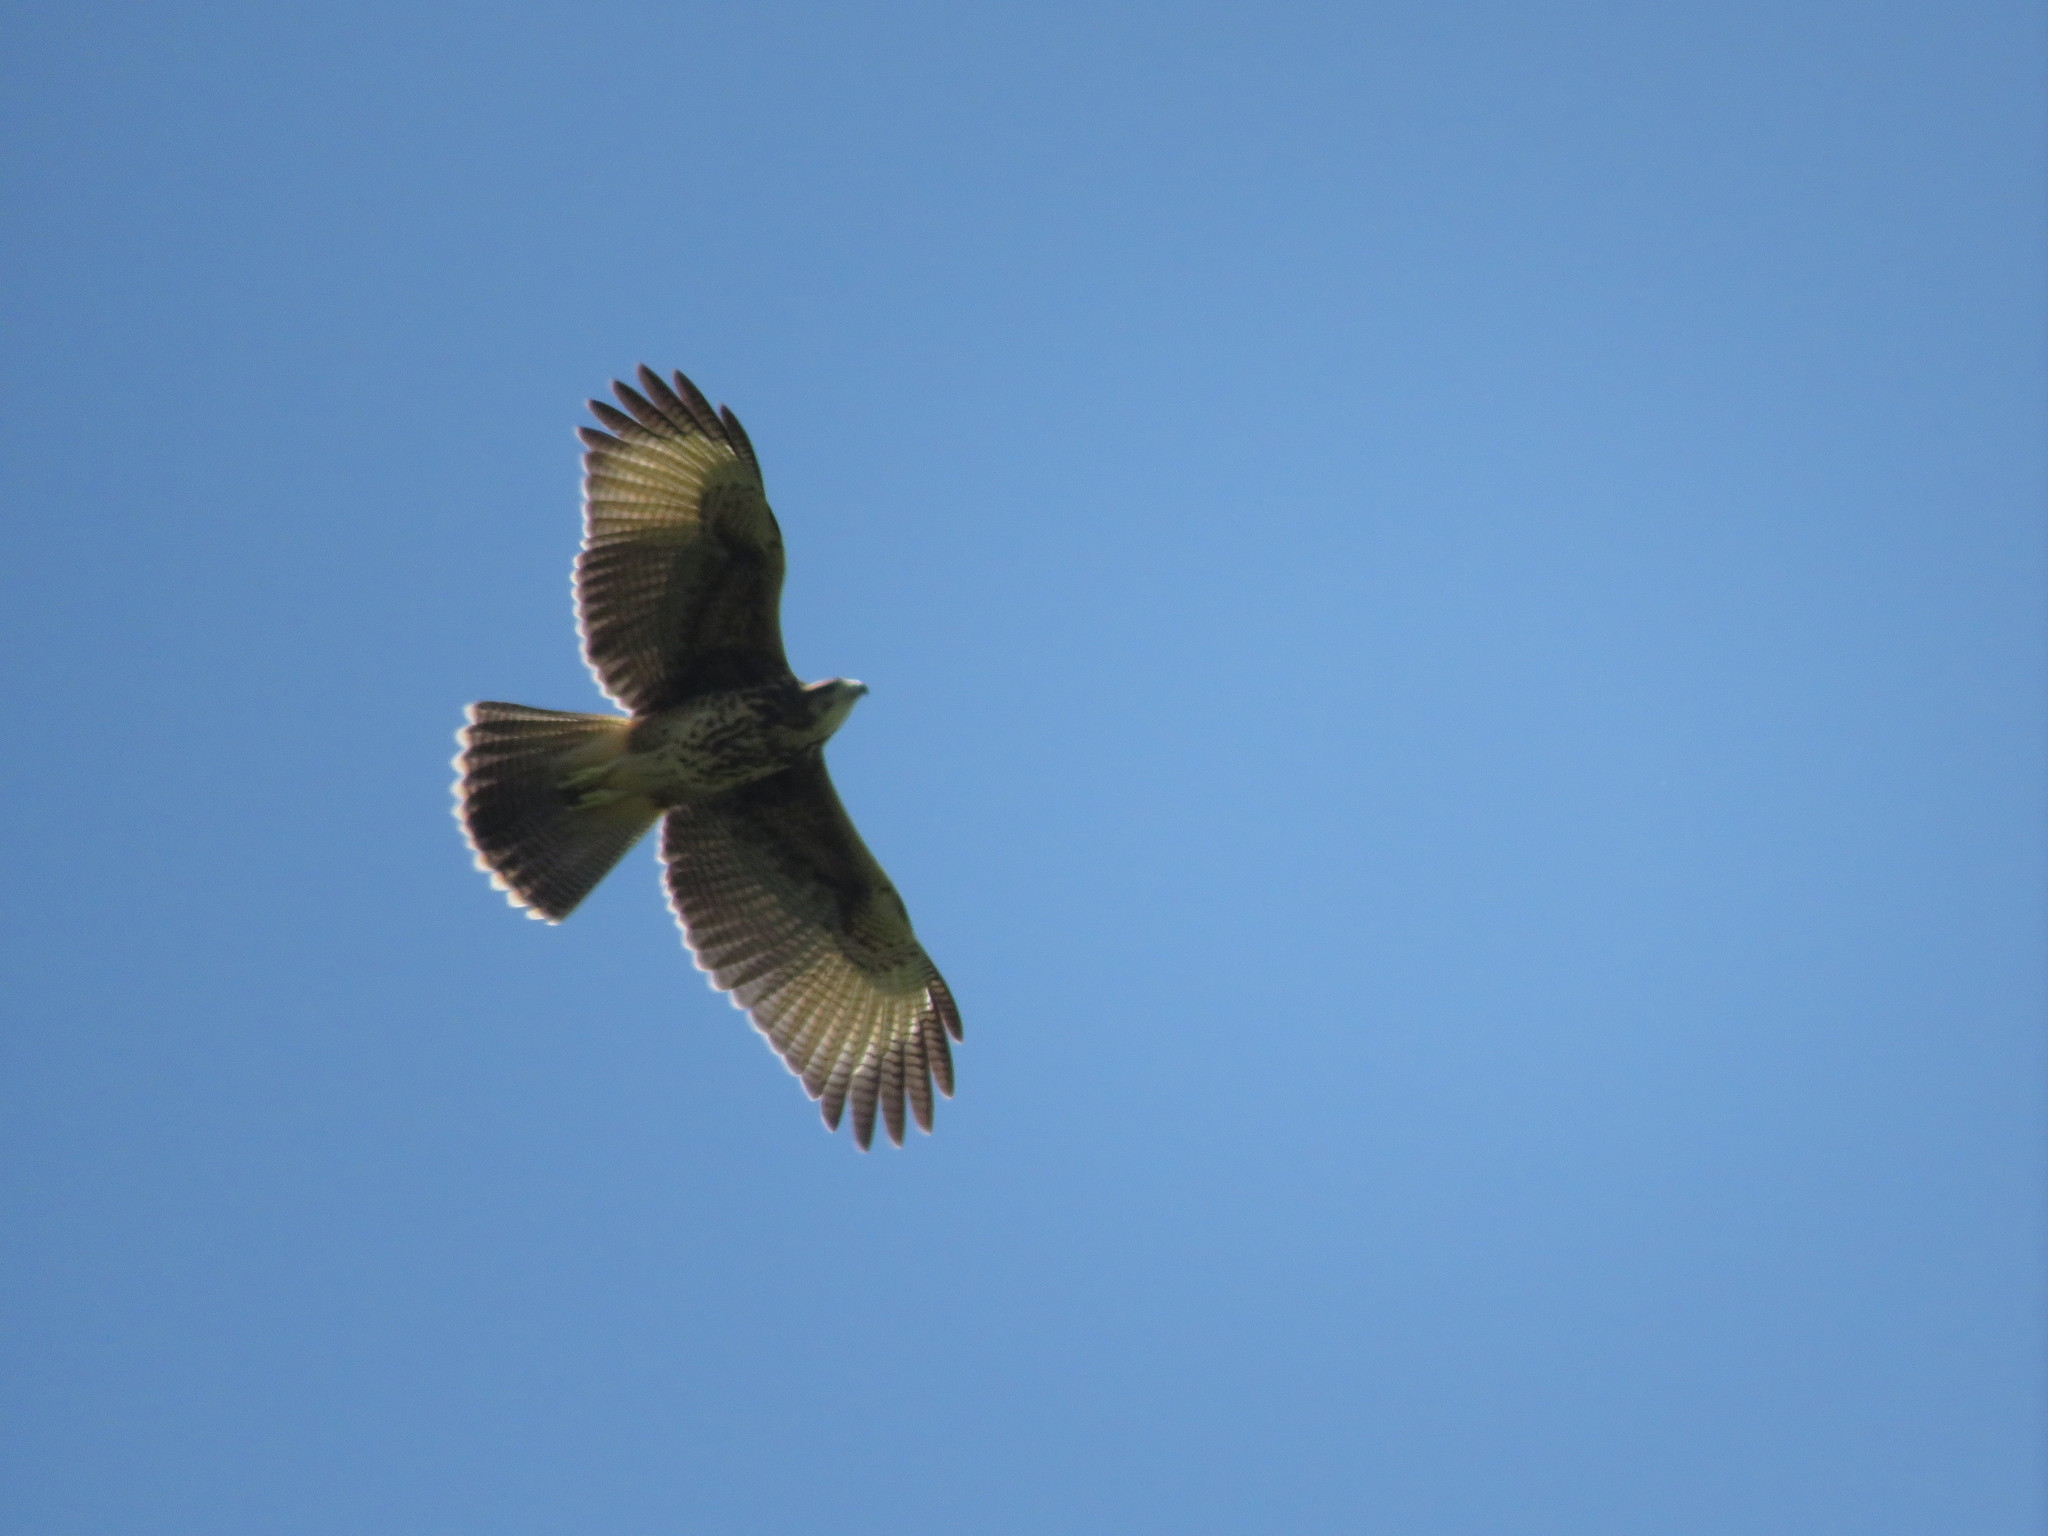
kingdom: Animalia
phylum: Chordata
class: Aves
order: Accipitriformes
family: Accipitridae
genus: Parabuteo
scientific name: Parabuteo unicinctus
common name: Harris's hawk
